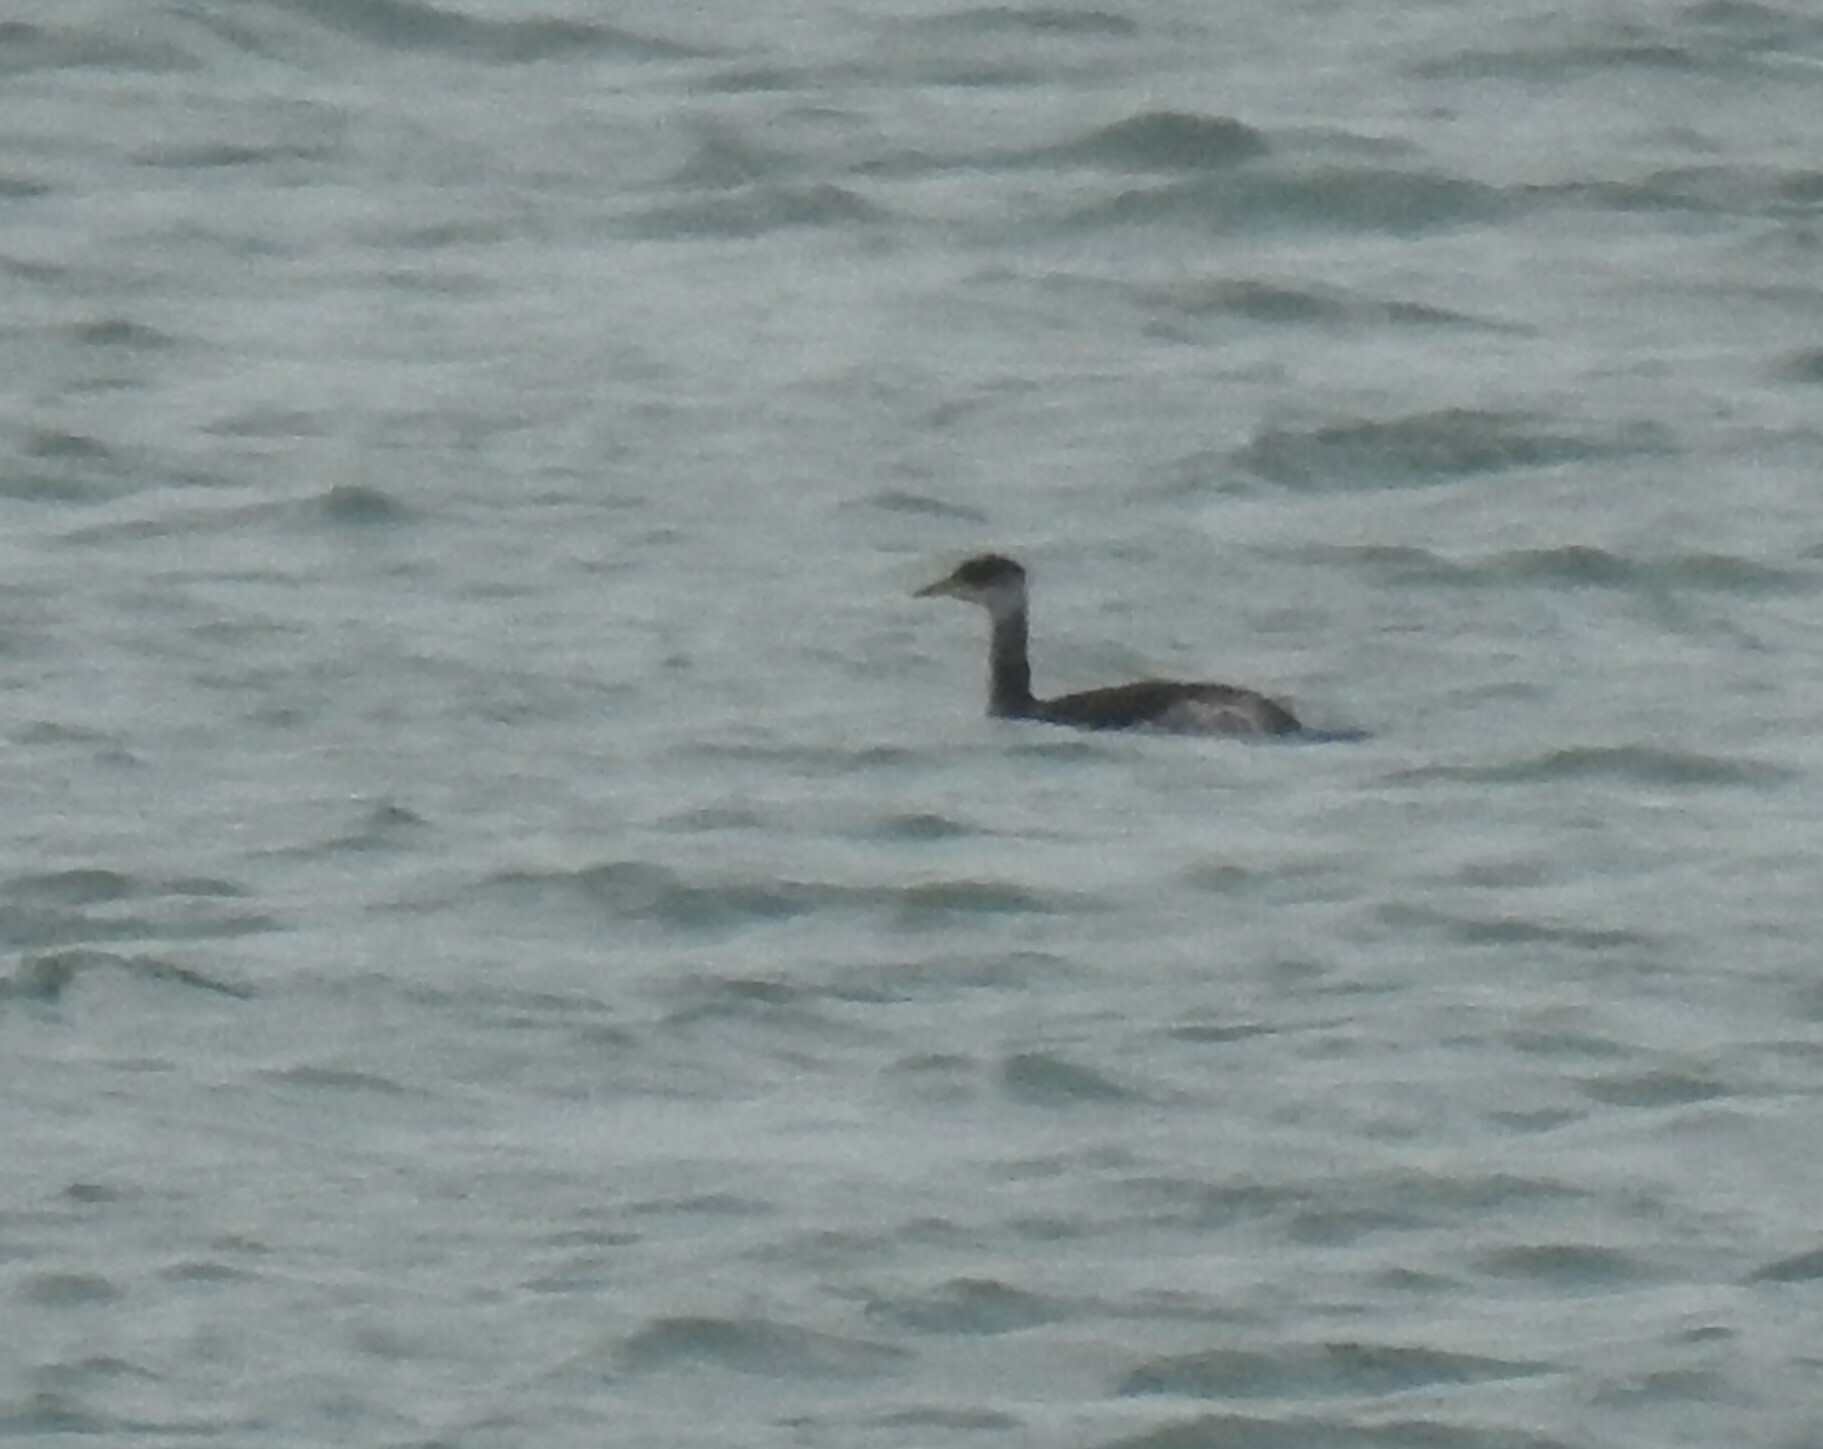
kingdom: Animalia
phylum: Chordata
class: Aves
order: Podicipediformes
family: Podicipedidae
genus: Podiceps
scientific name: Podiceps grisegena
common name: Red-necked grebe
